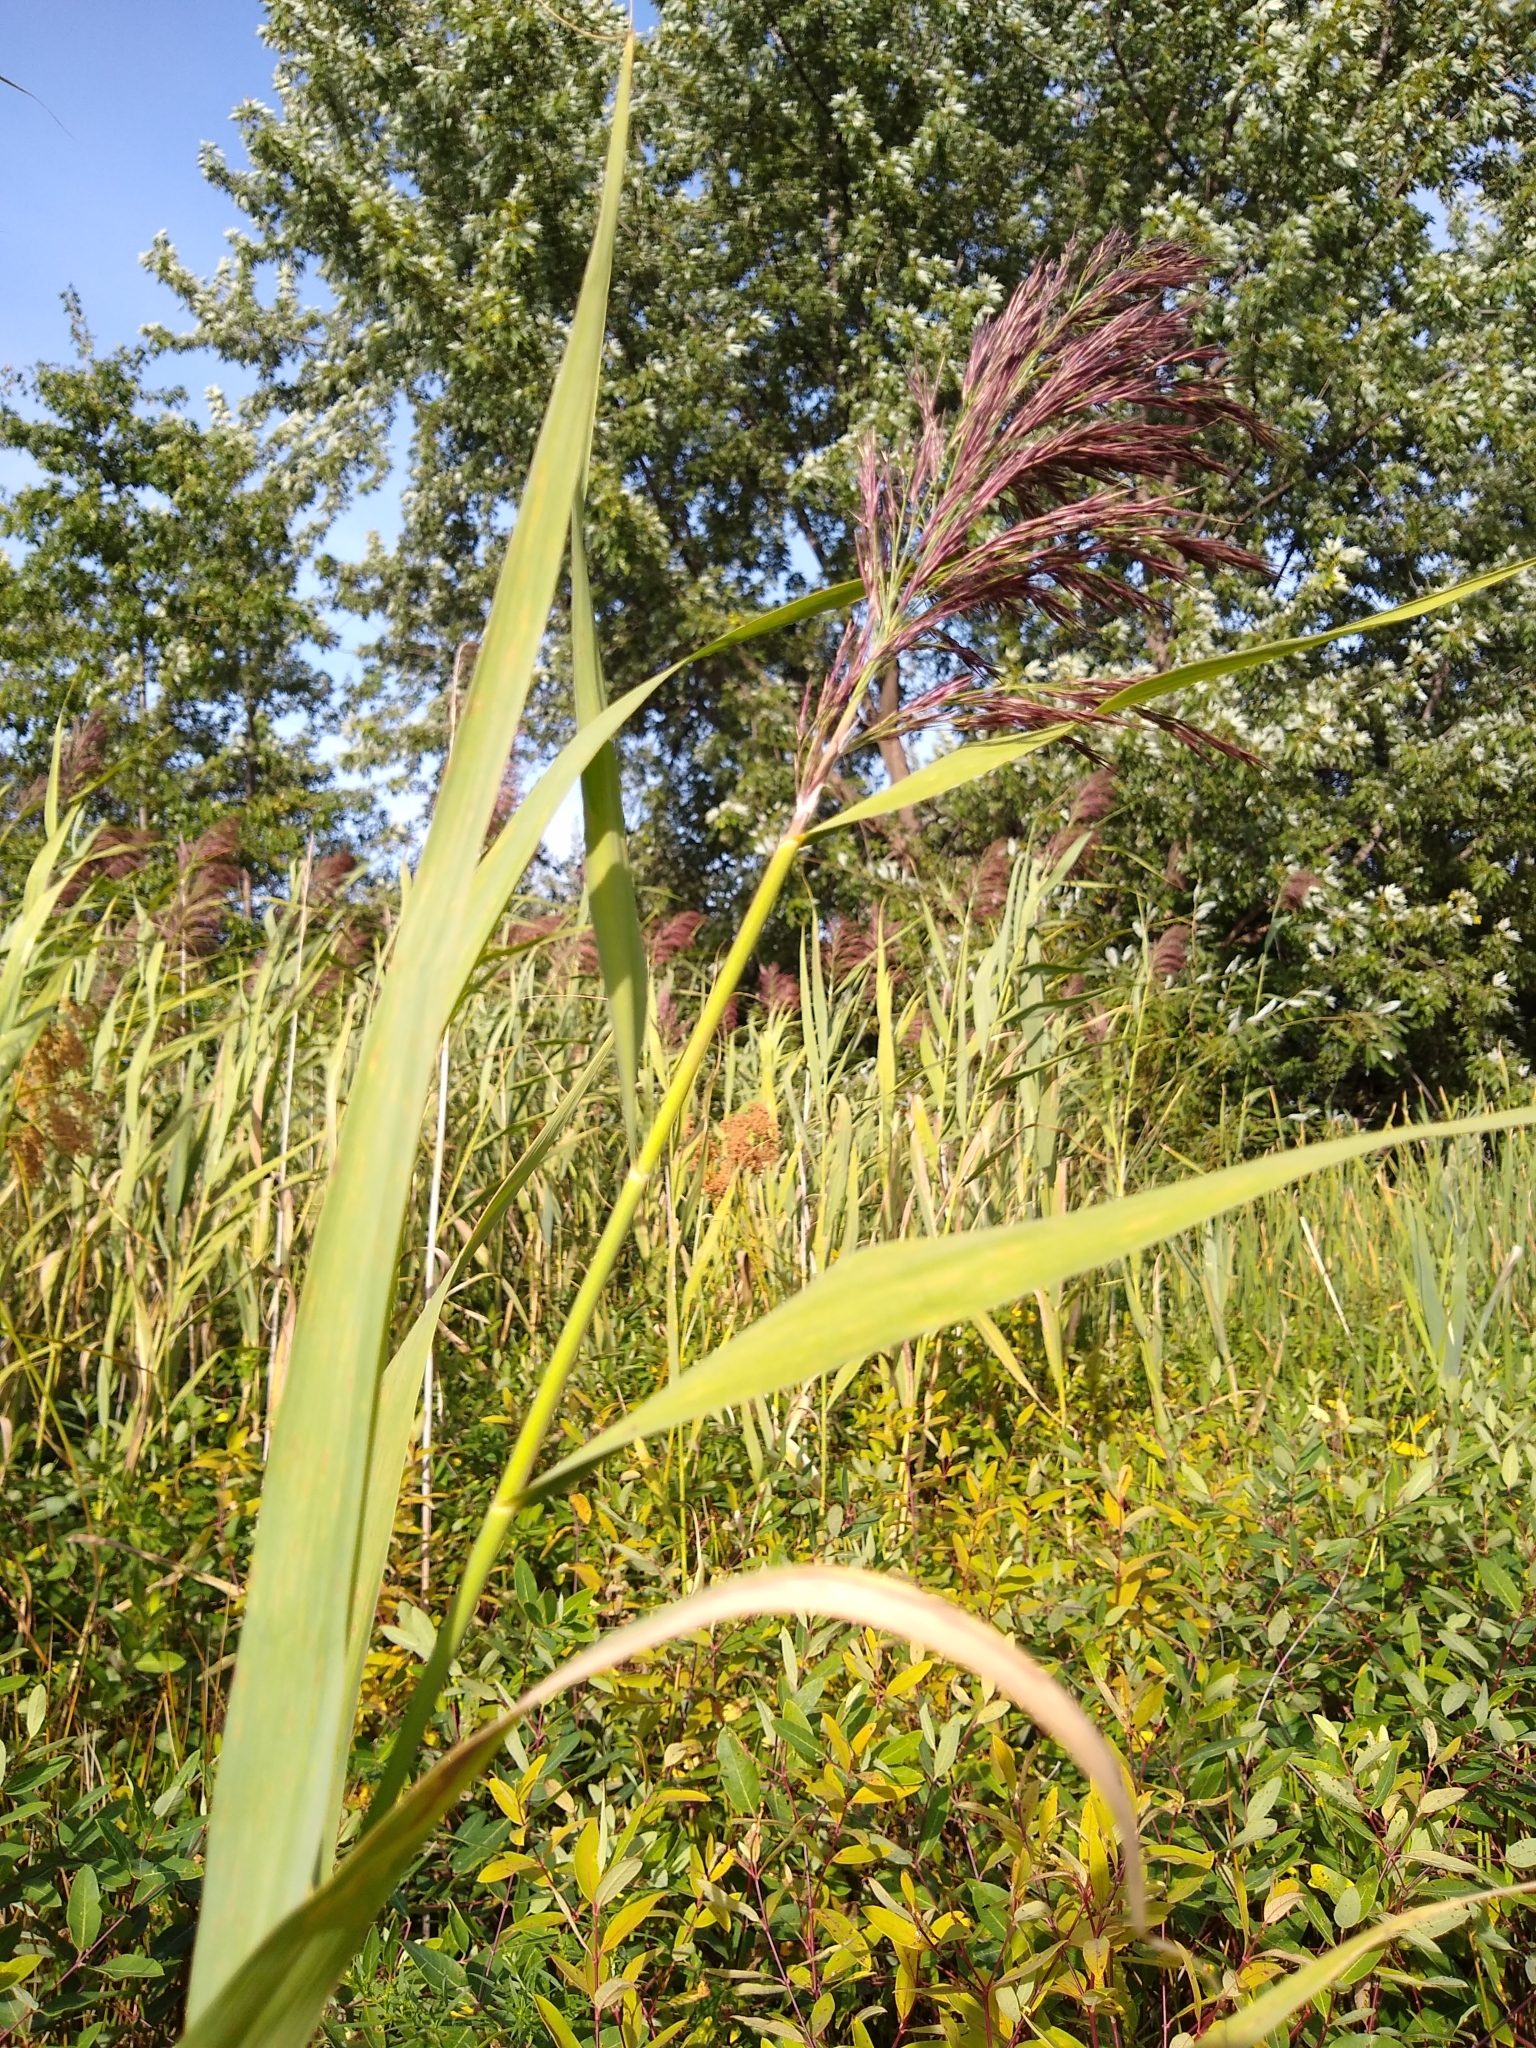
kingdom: Plantae
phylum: Tracheophyta
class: Liliopsida
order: Poales
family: Poaceae
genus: Phragmites
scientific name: Phragmites australis
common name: Common reed
